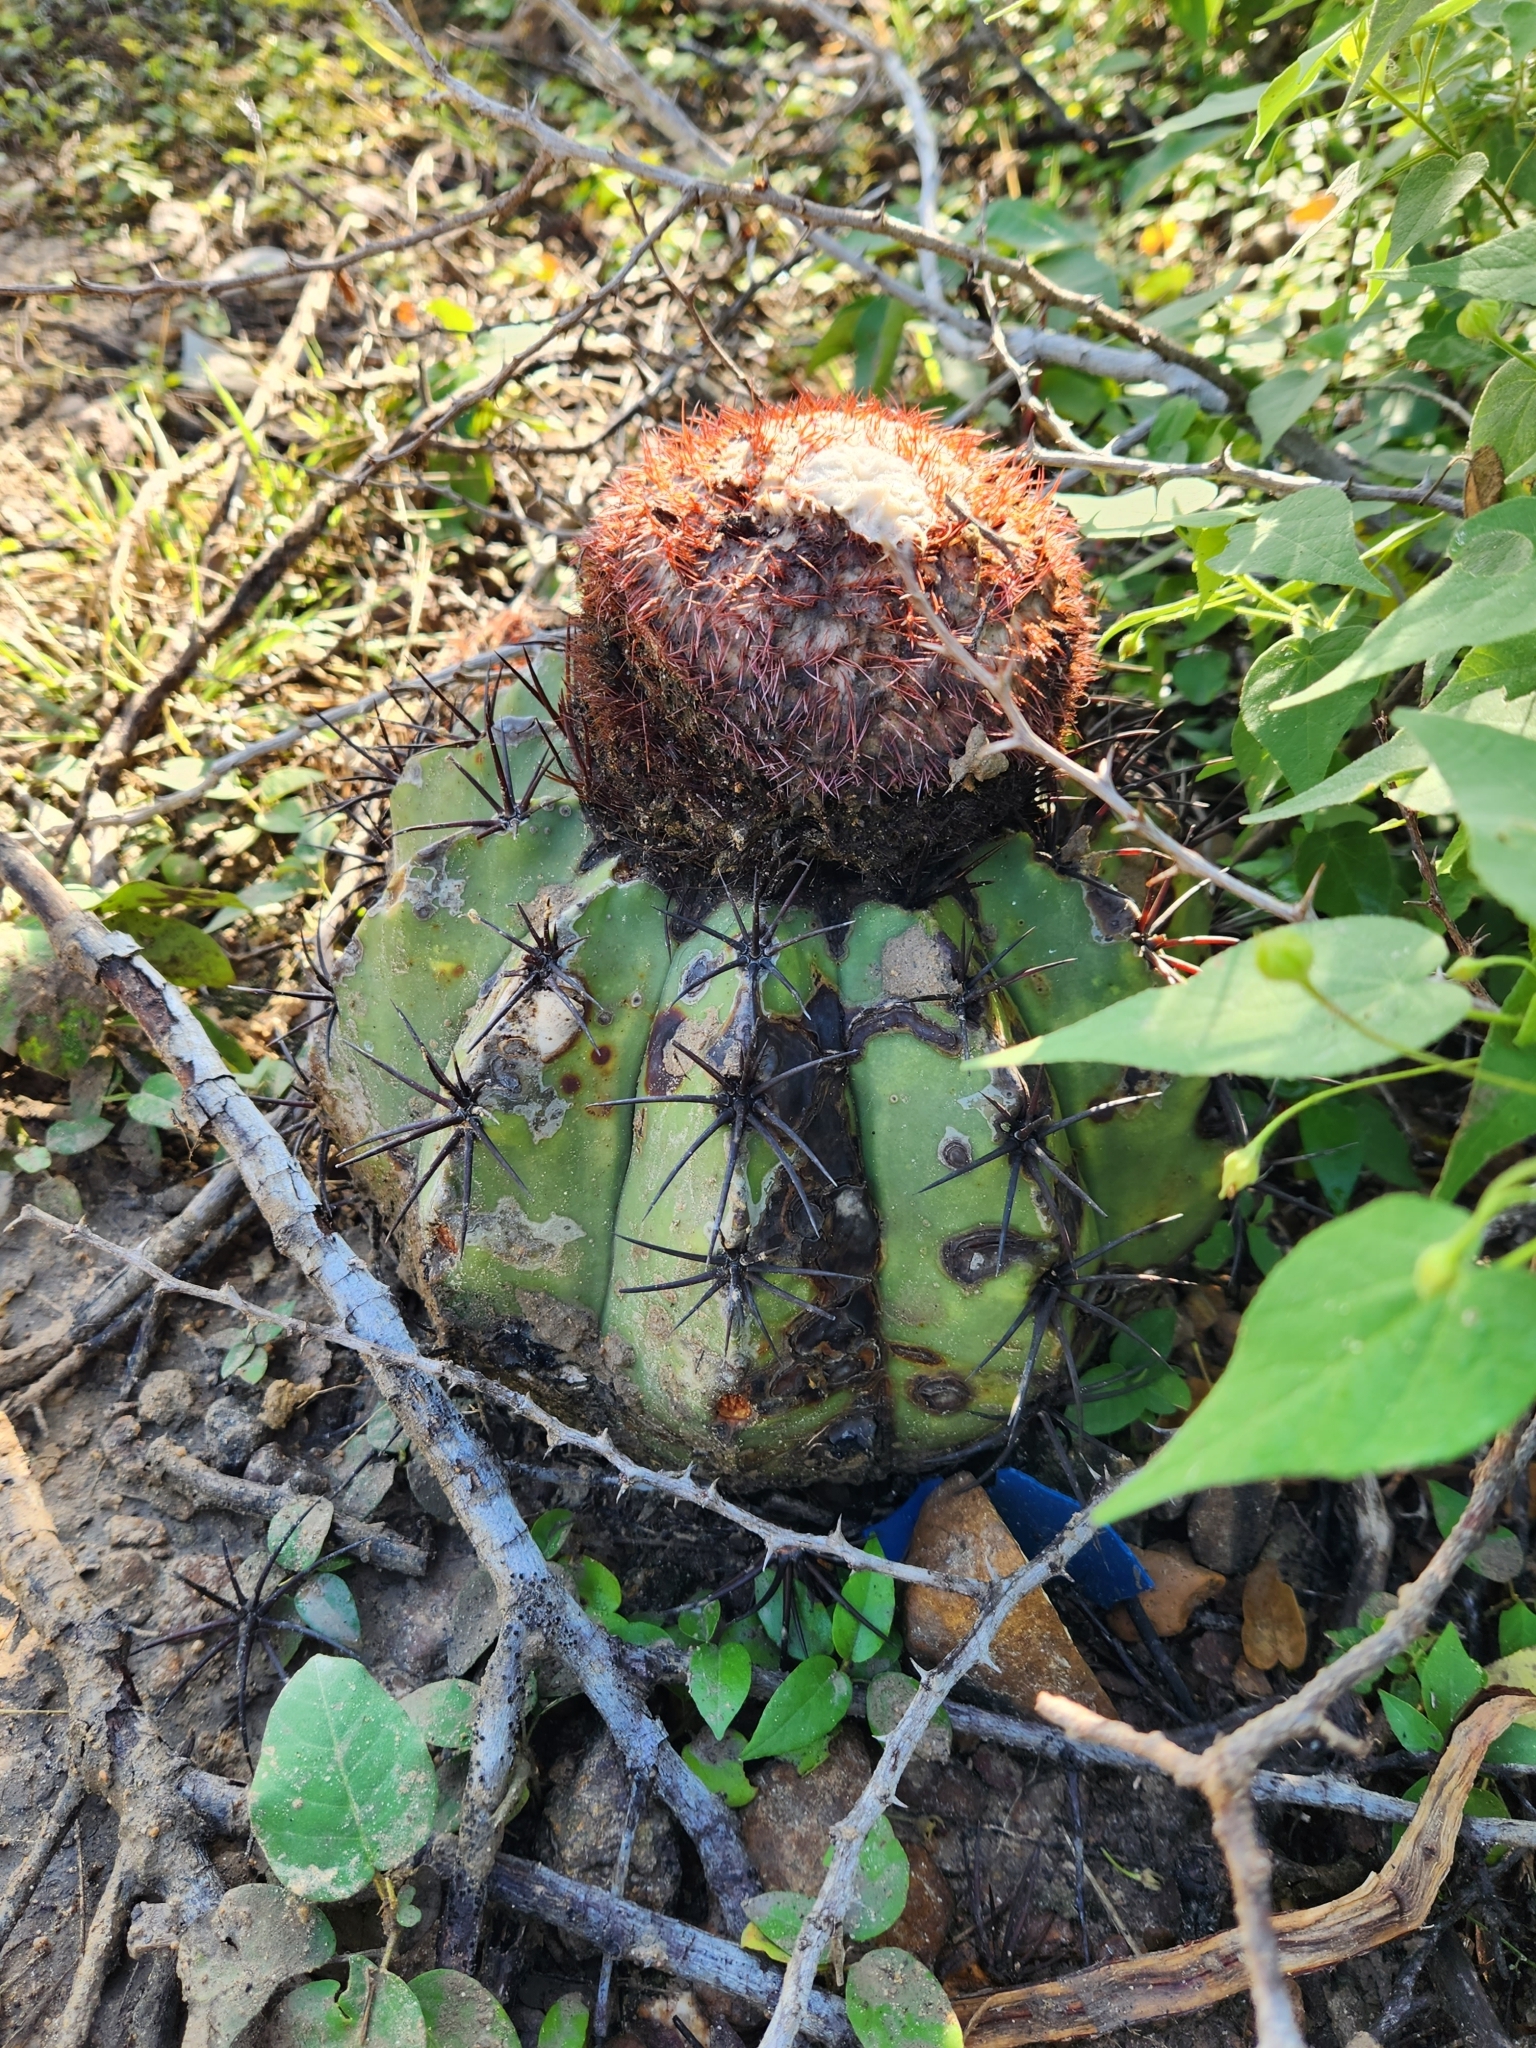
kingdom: Plantae
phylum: Tracheophyta
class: Magnoliopsida
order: Caryophyllales
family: Cactaceae
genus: Melocactus
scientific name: Melocactus curvispinus
